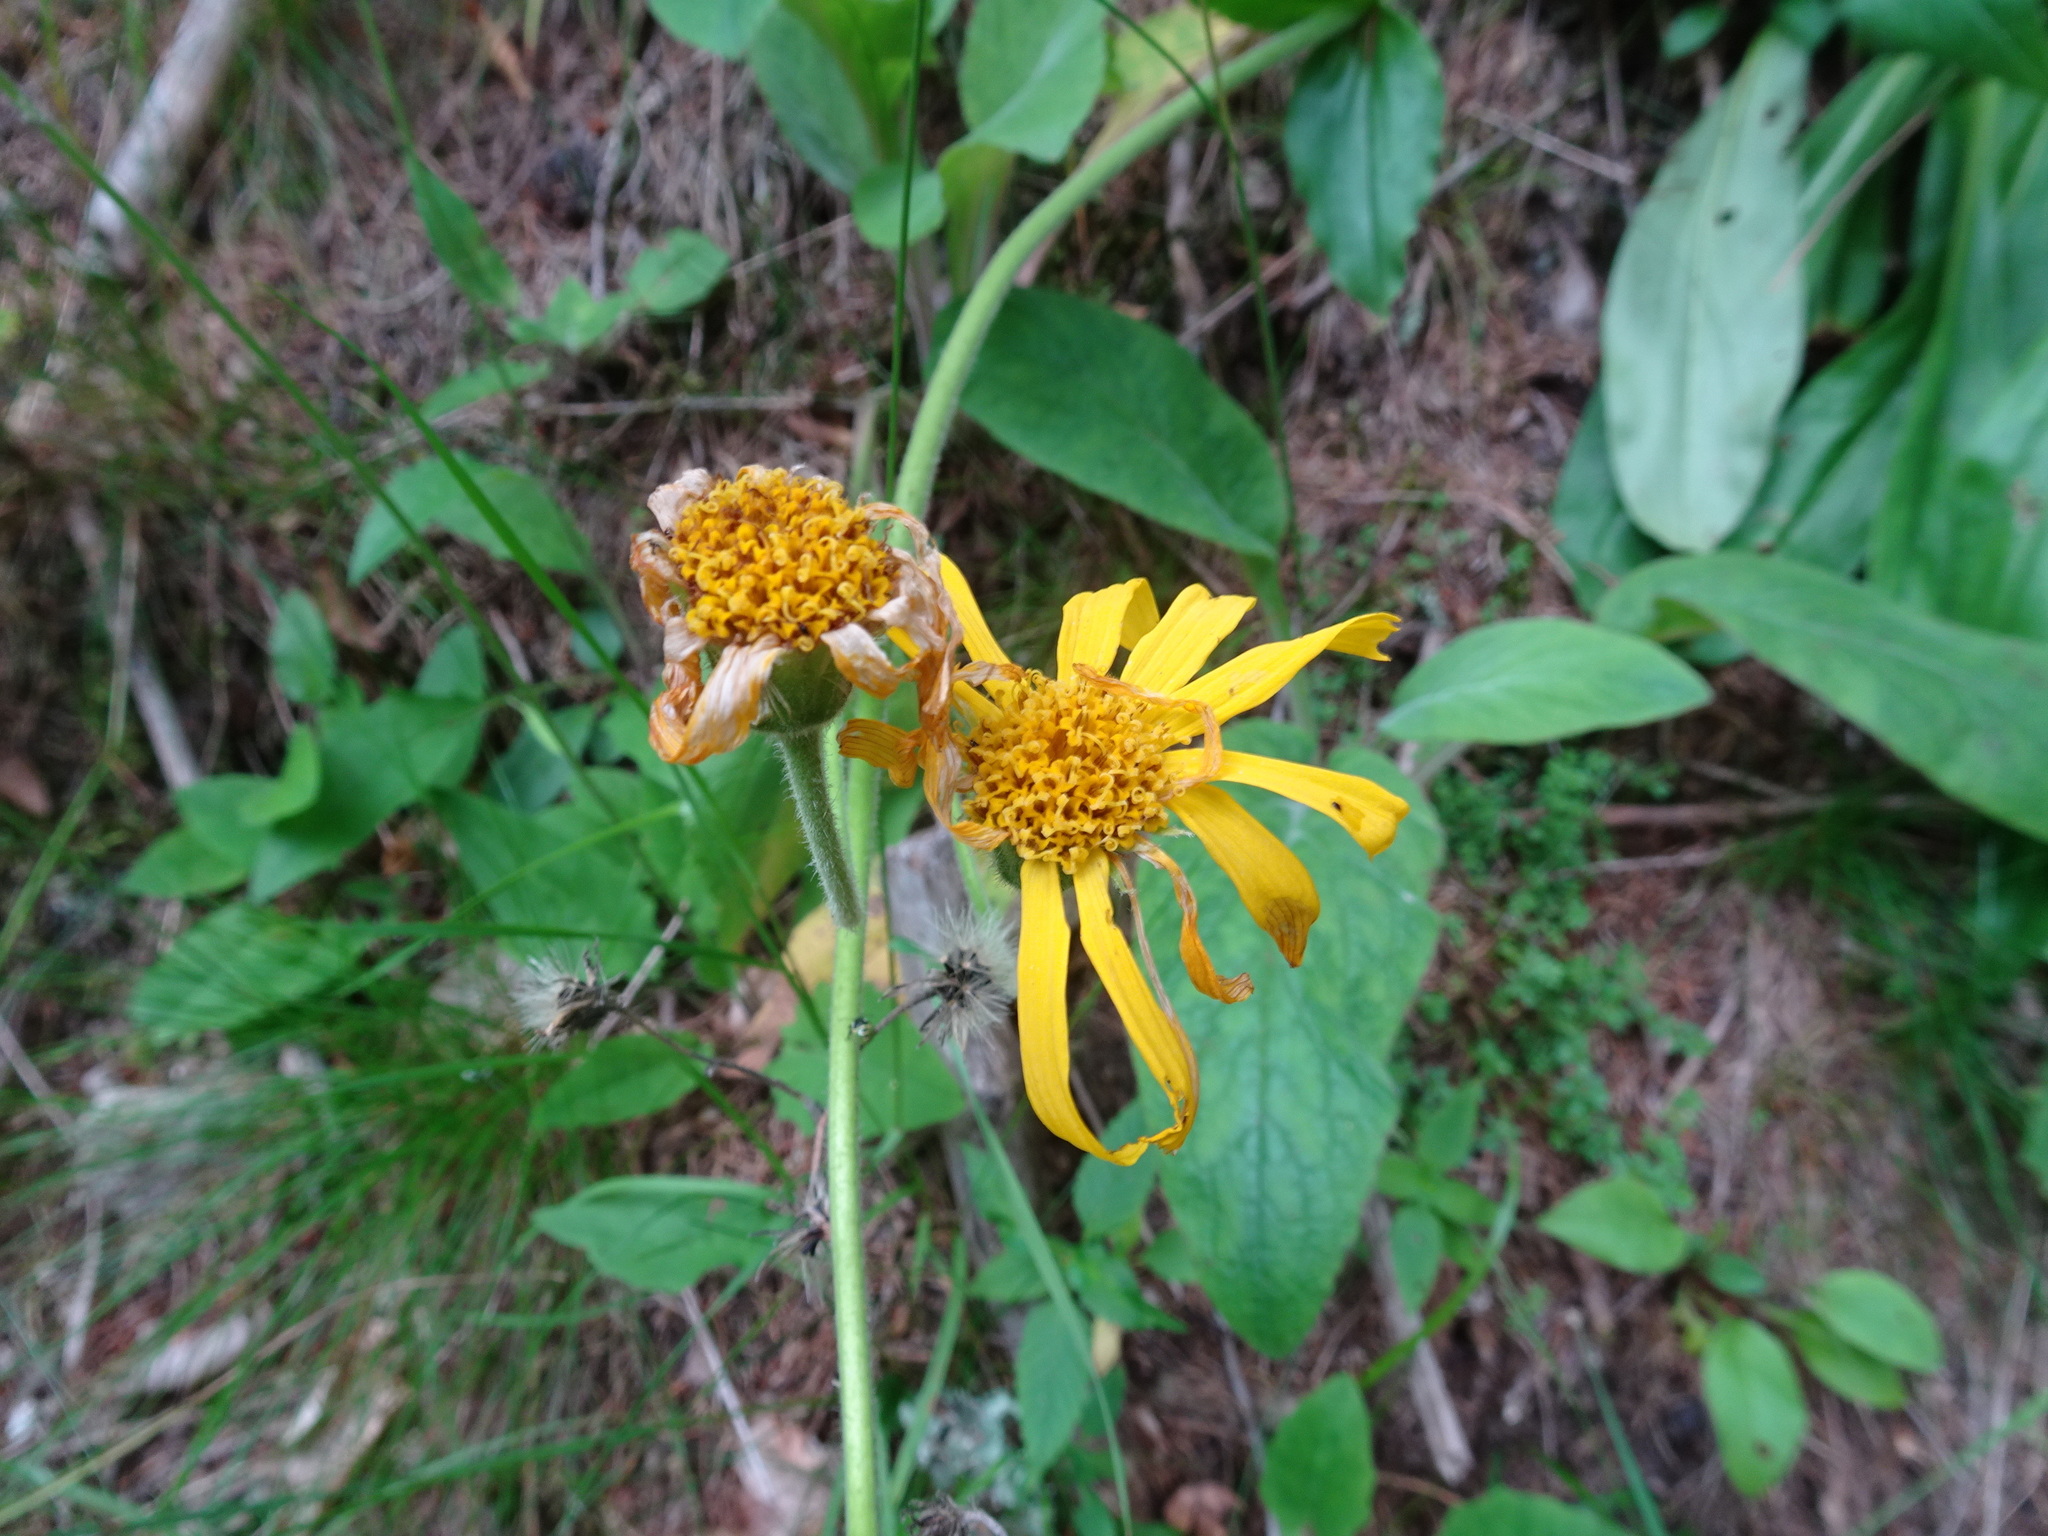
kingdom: Plantae
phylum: Tracheophyta
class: Magnoliopsida
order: Asterales
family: Asteraceae
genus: Arnica
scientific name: Arnica montana
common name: Leopard's bane
